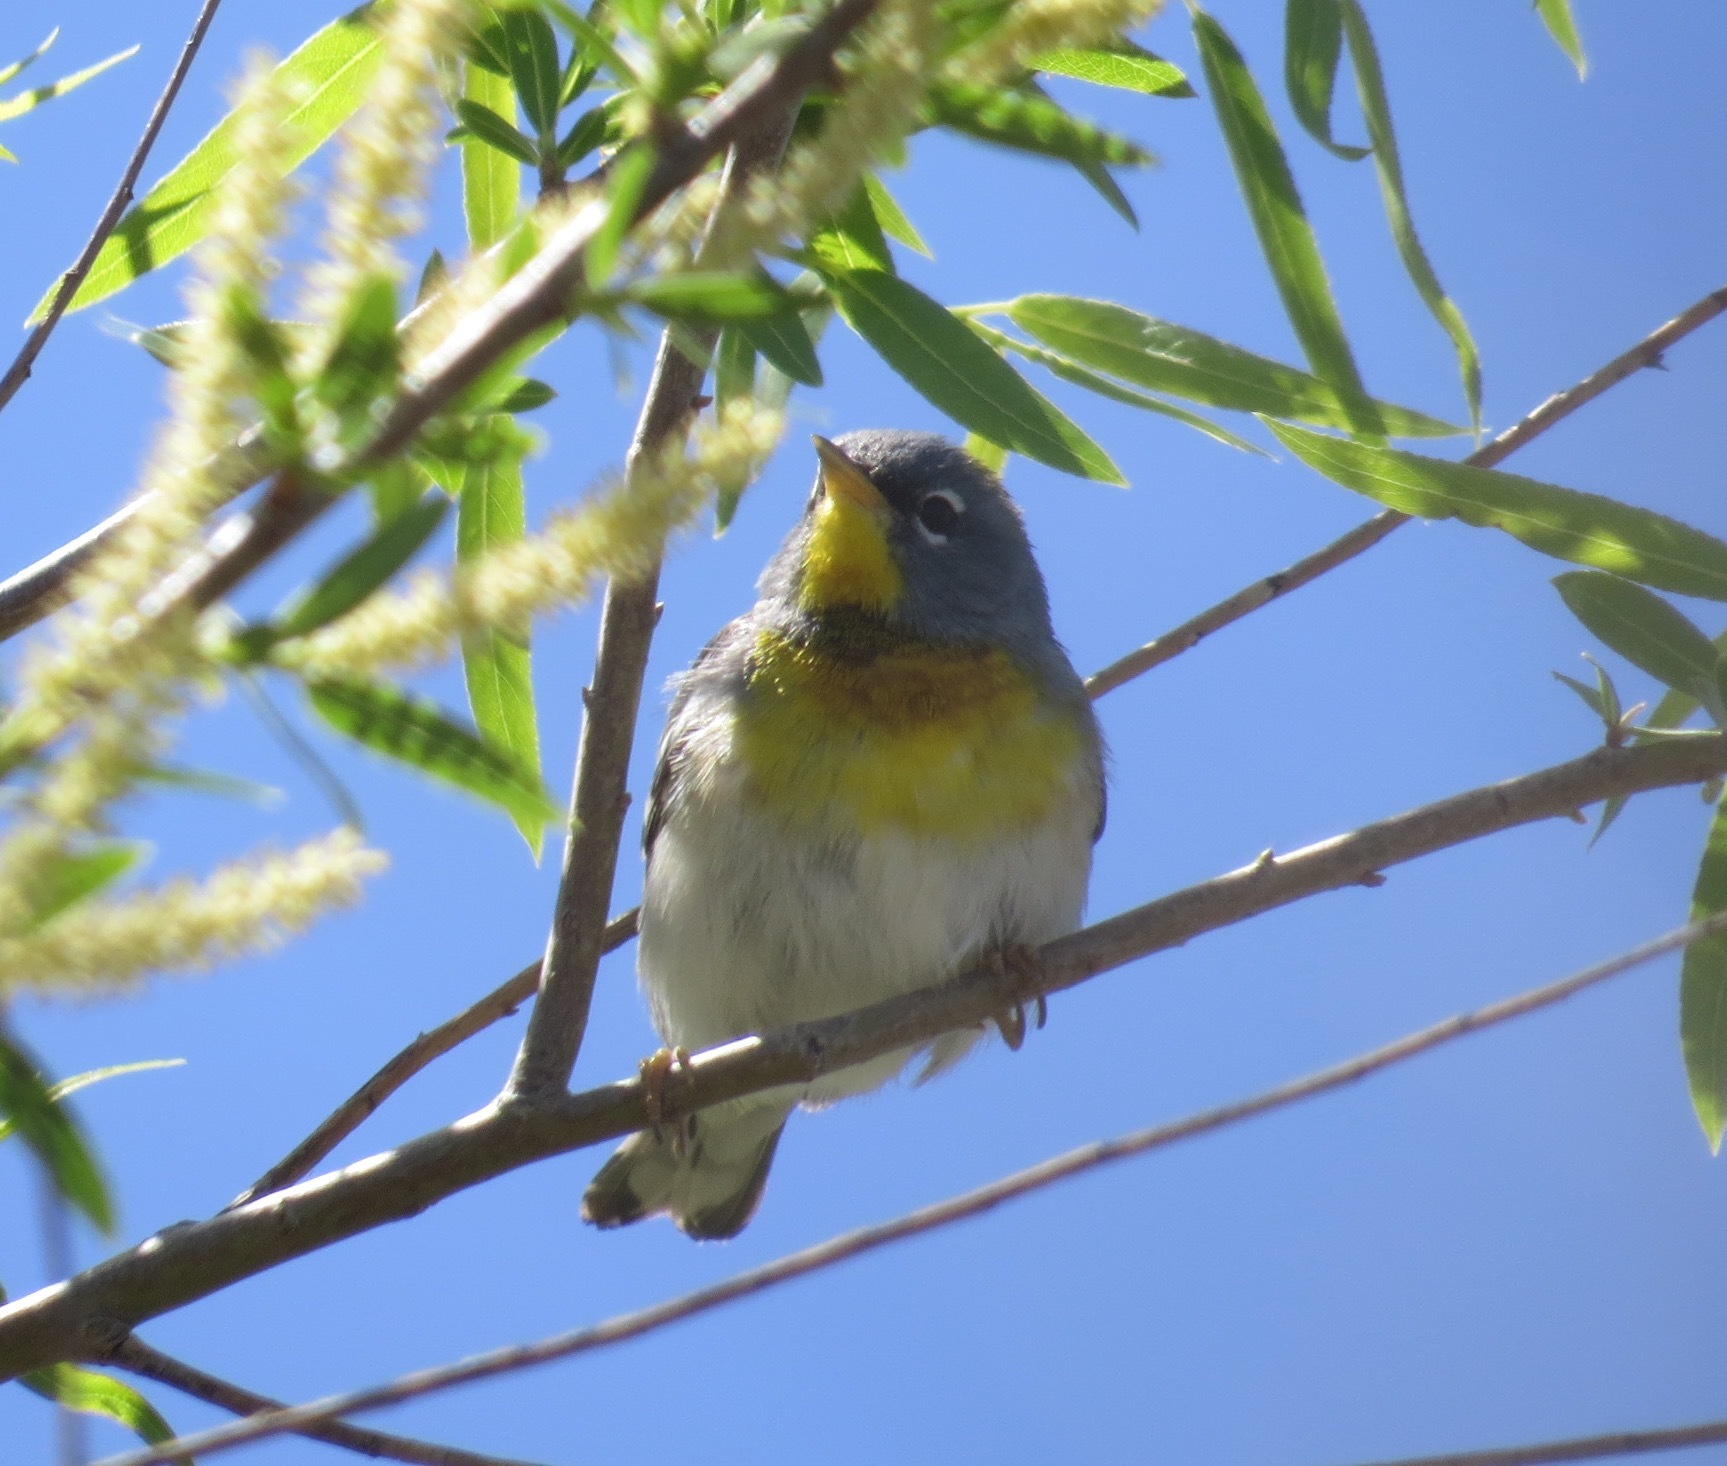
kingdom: Animalia
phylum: Chordata
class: Aves
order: Passeriformes
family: Parulidae
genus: Setophaga
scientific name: Setophaga americana
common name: Northern parula
